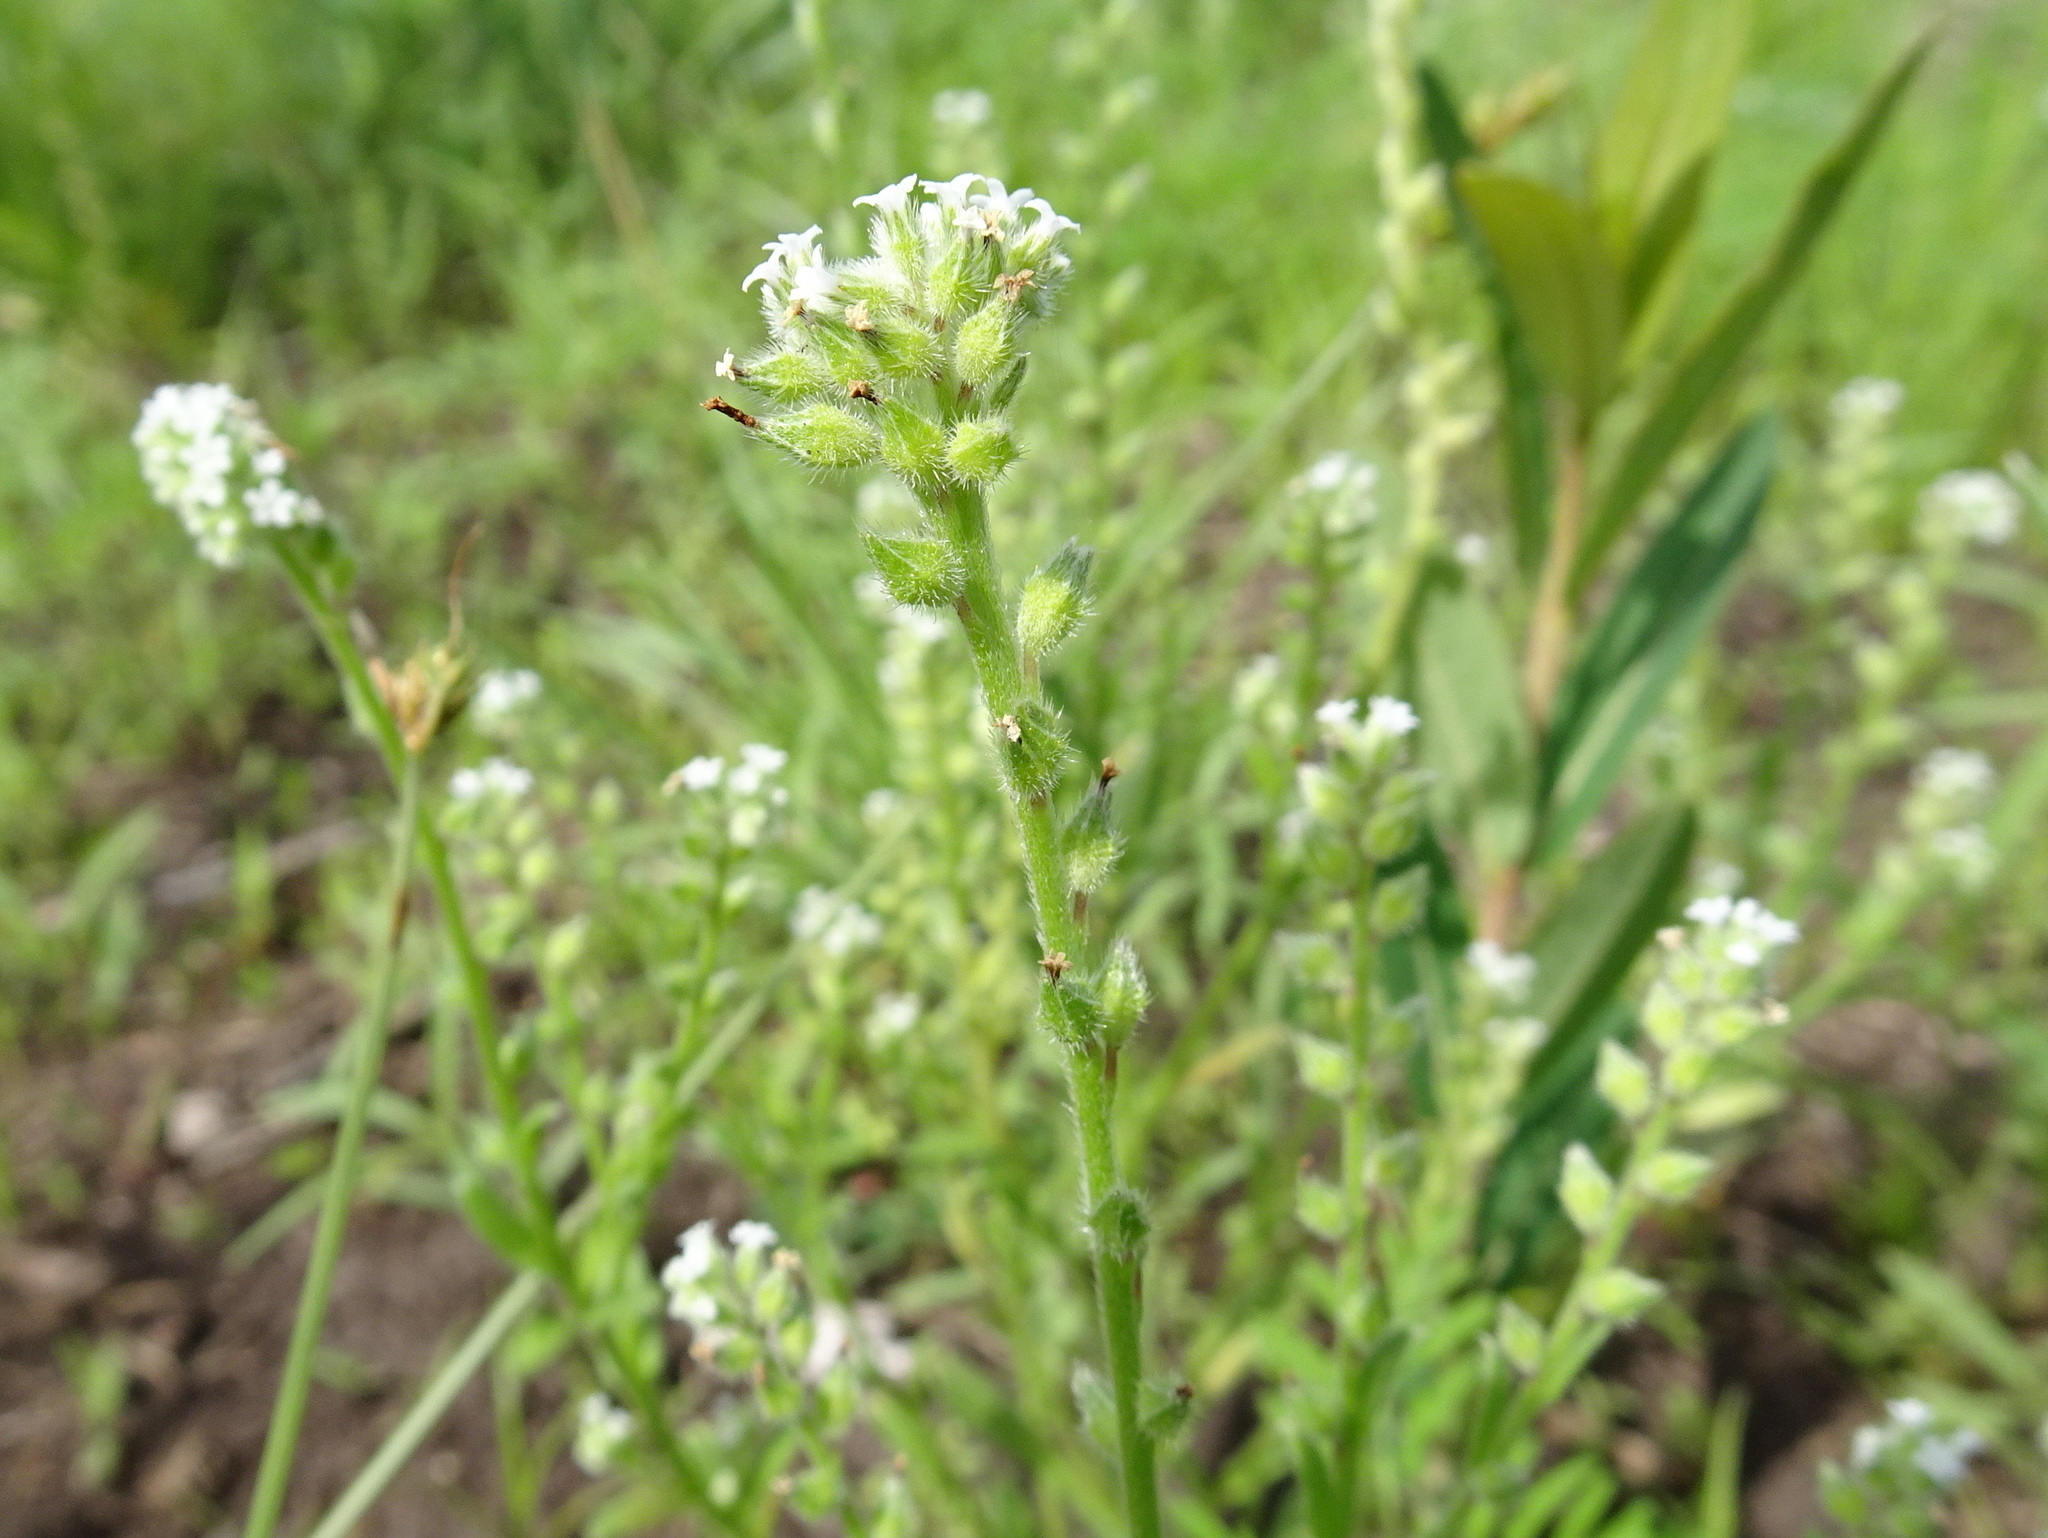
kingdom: Plantae
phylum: Tracheophyta
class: Magnoliopsida
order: Boraginales
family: Boraginaceae
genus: Myosotis
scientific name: Myosotis verna
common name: Early forget-me-not
